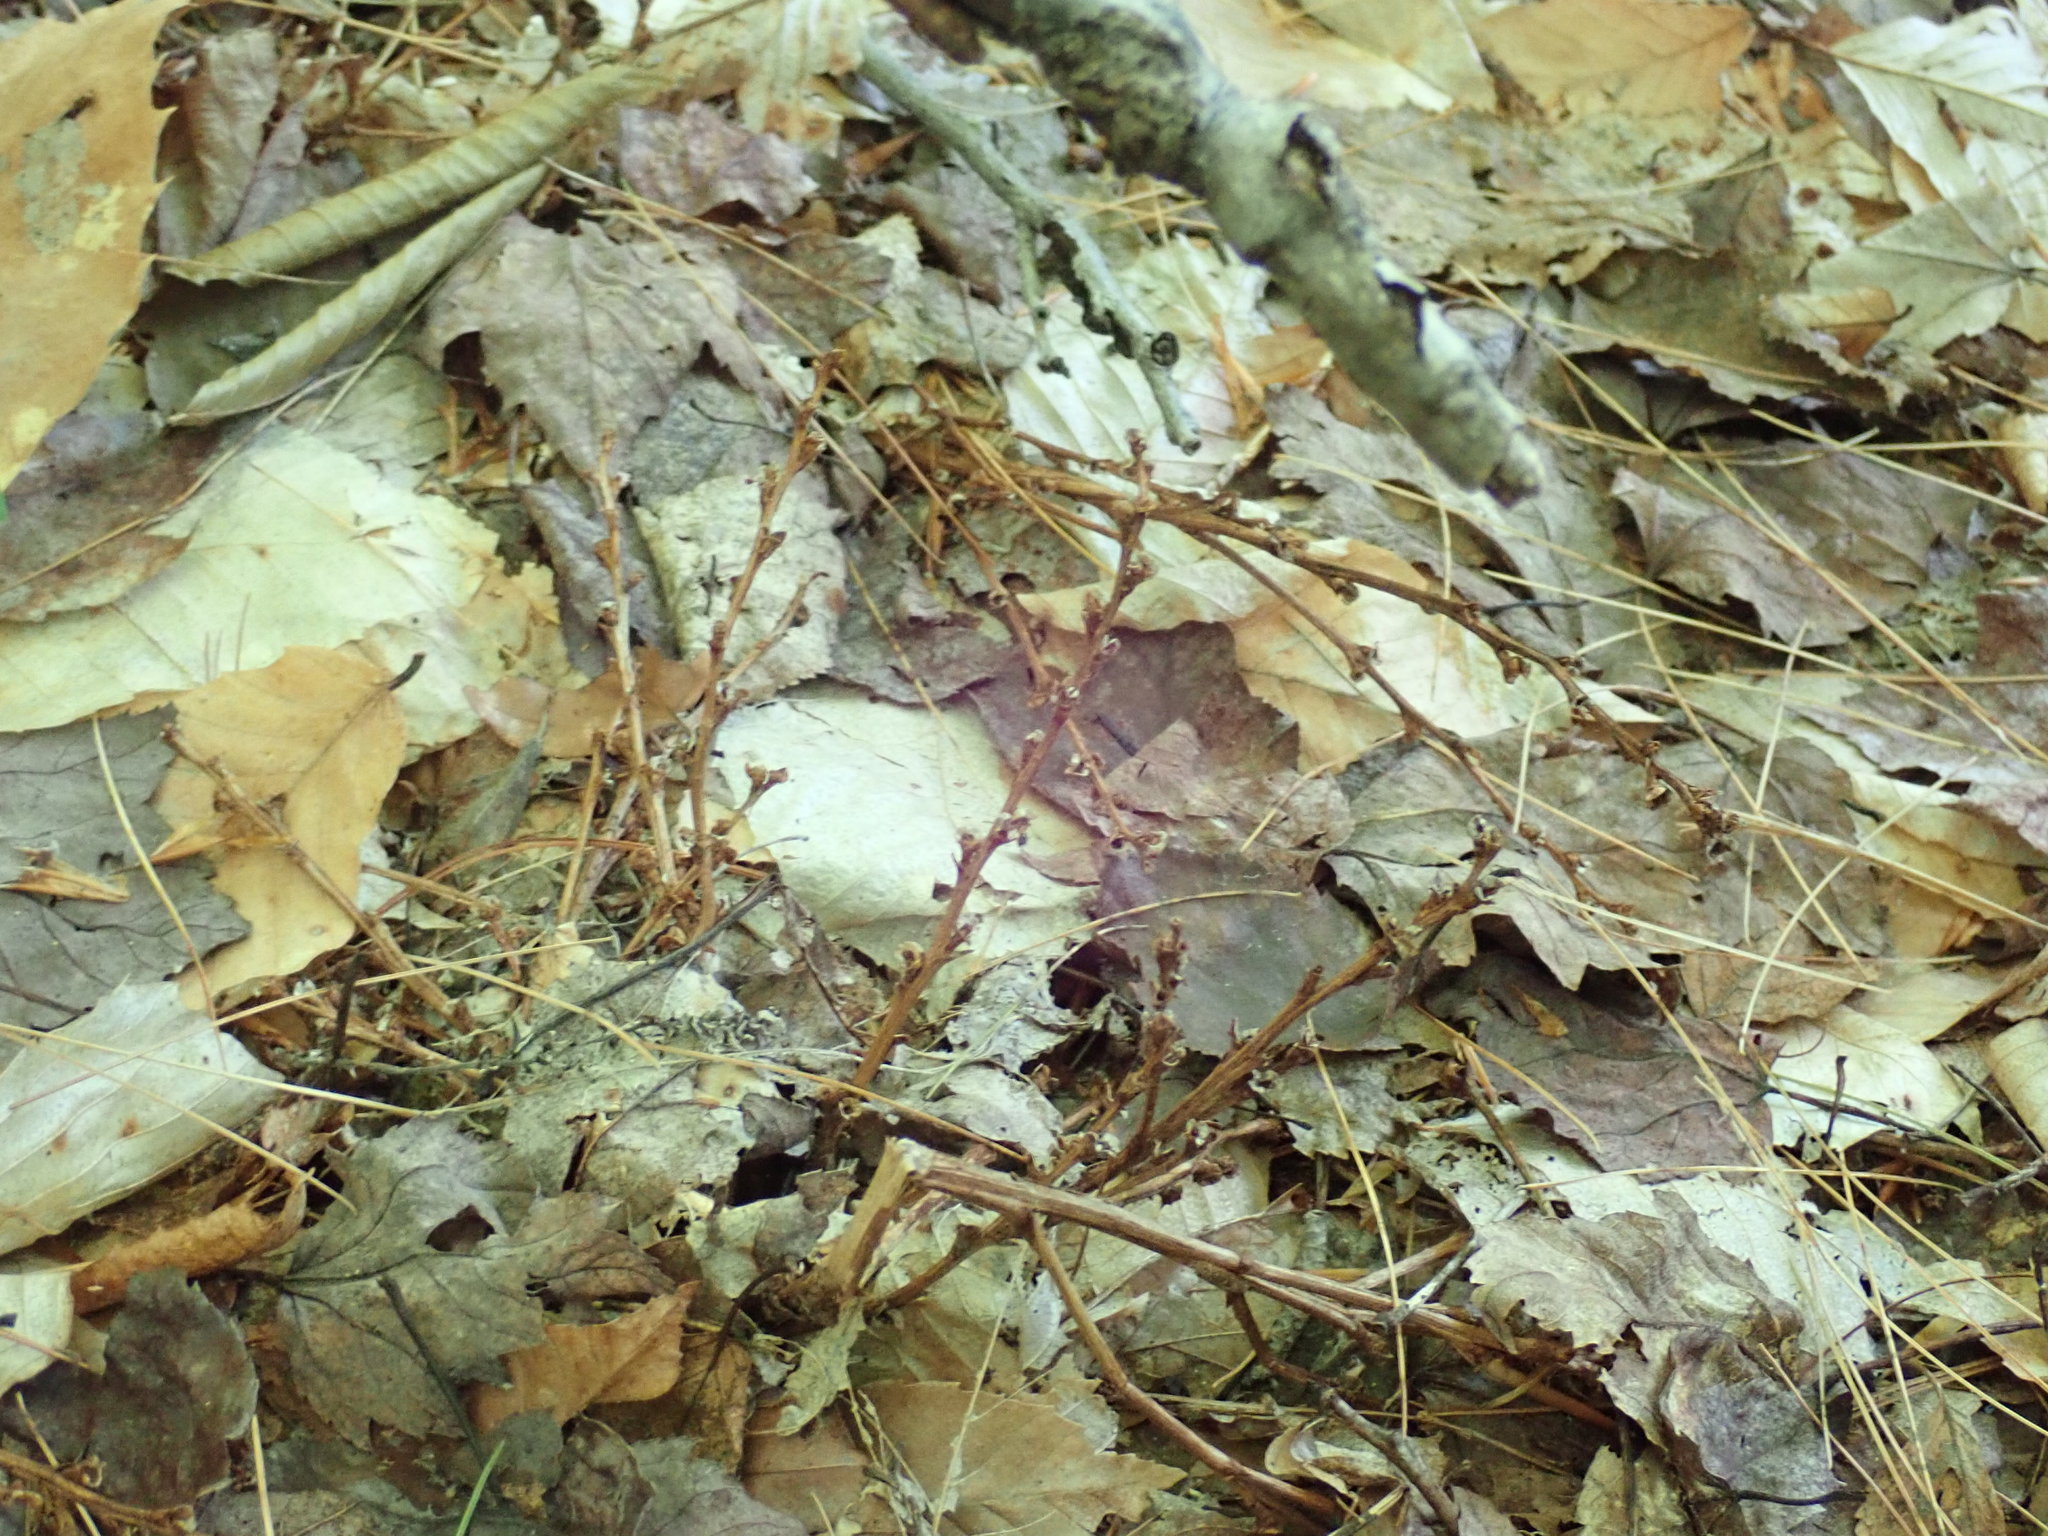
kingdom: Plantae
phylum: Tracheophyta
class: Magnoliopsida
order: Lamiales
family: Orobanchaceae
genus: Epifagus
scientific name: Epifagus virginiana
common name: Beechdrops
